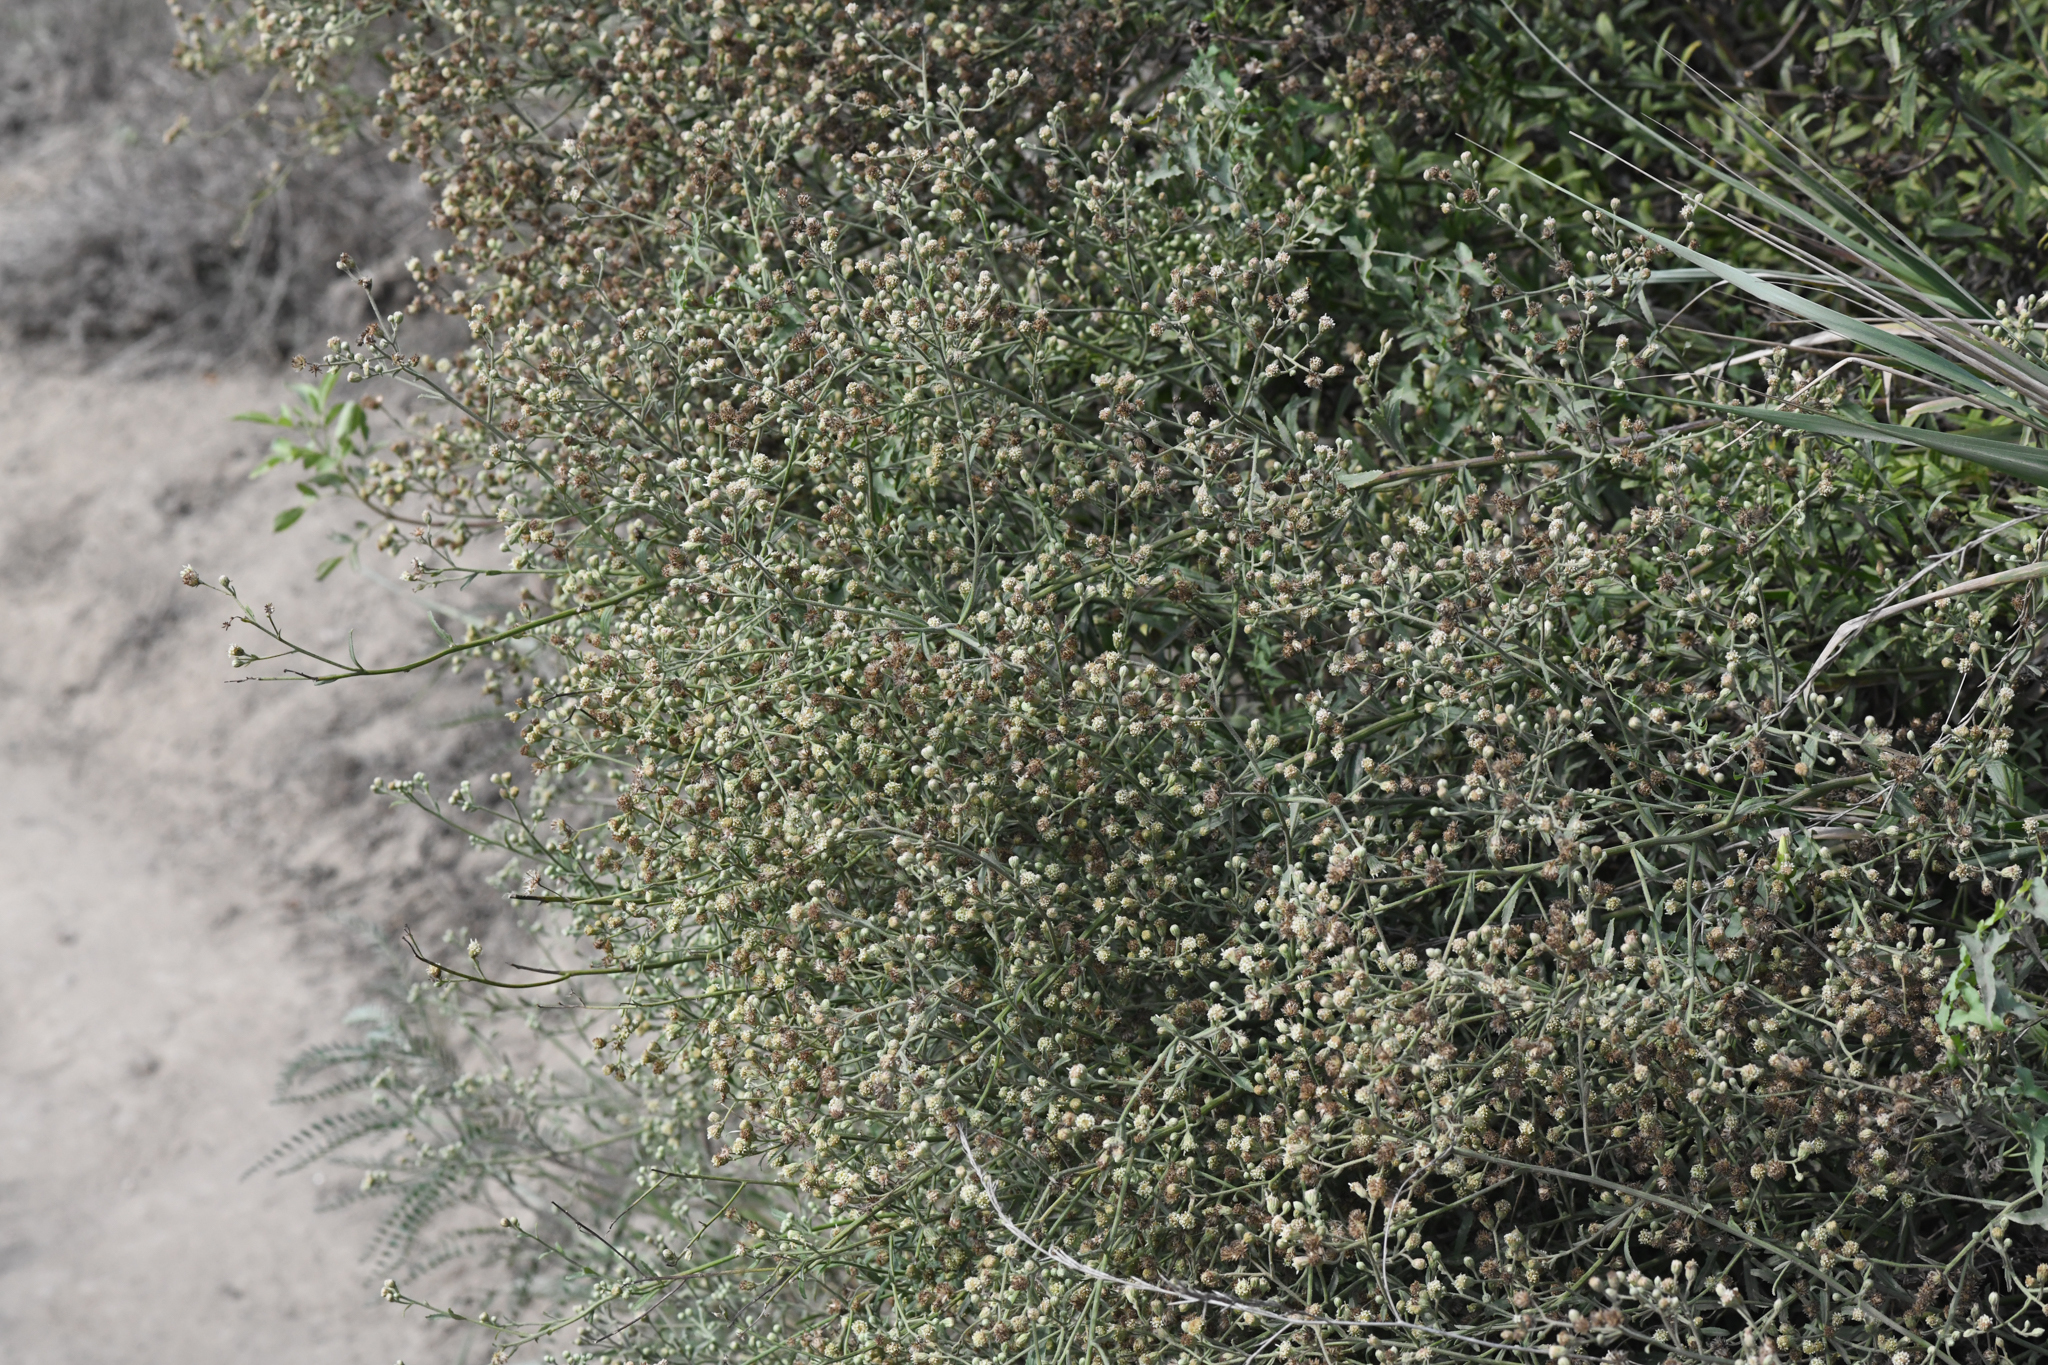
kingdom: Plantae
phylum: Tracheophyta
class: Magnoliopsida
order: Asterales
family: Asteraceae
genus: Baccharis
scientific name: Baccharis plummerae
